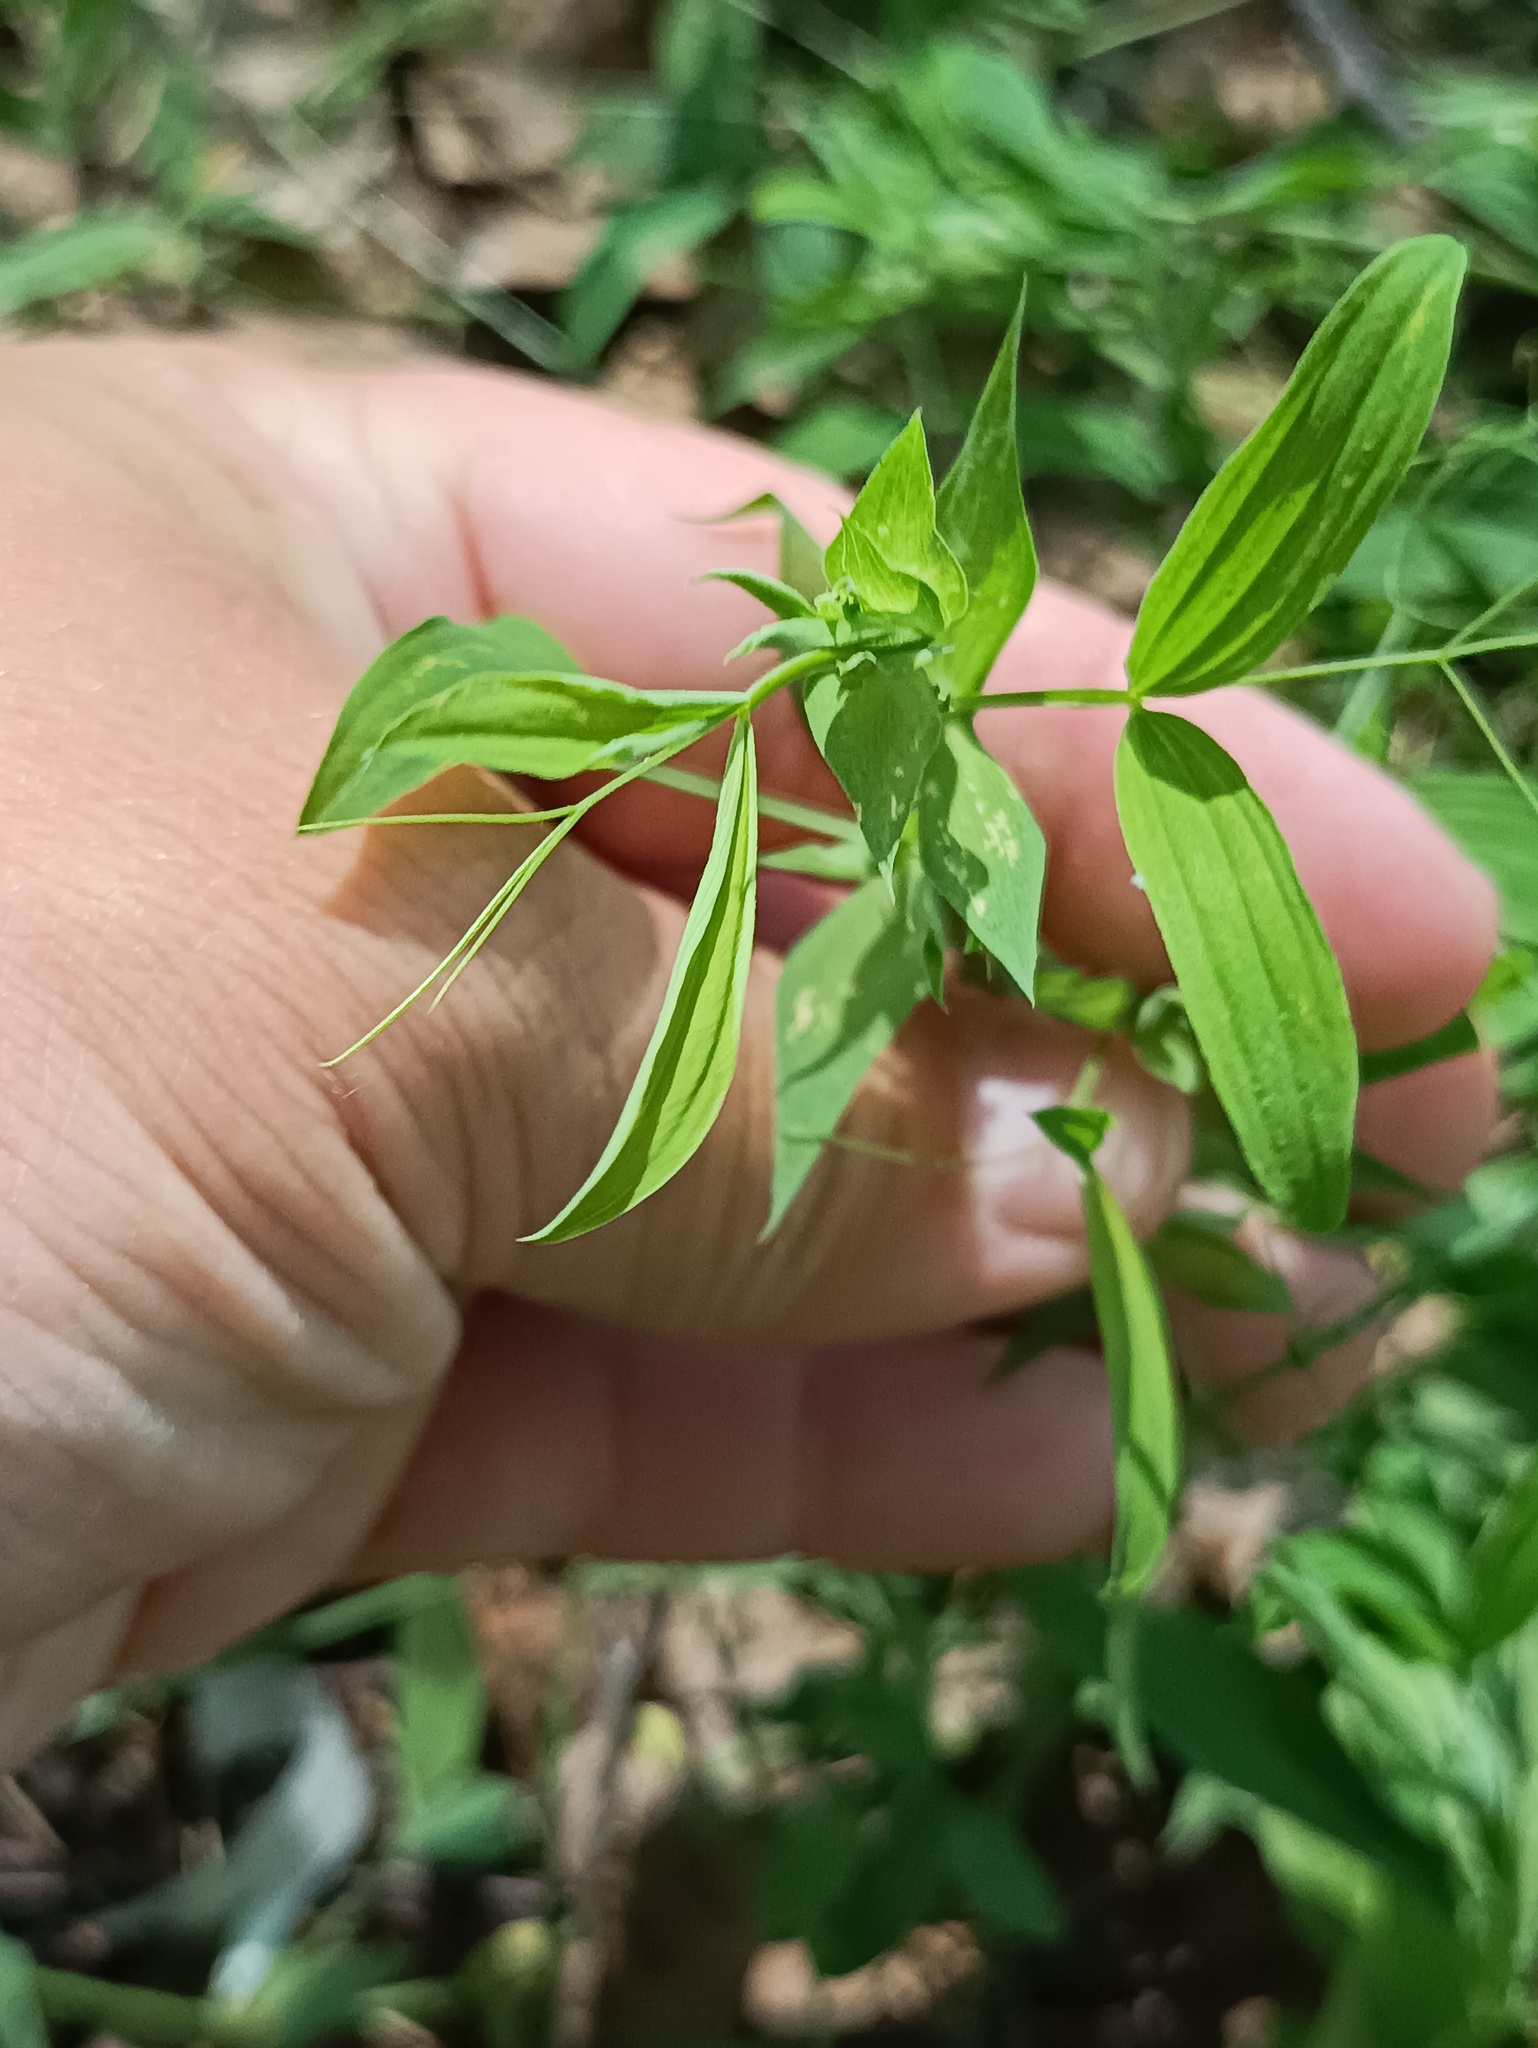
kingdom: Plantae
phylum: Tracheophyta
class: Magnoliopsida
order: Fabales
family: Fabaceae
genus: Lathyrus
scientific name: Lathyrus pratensis
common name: Meadow vetchling
